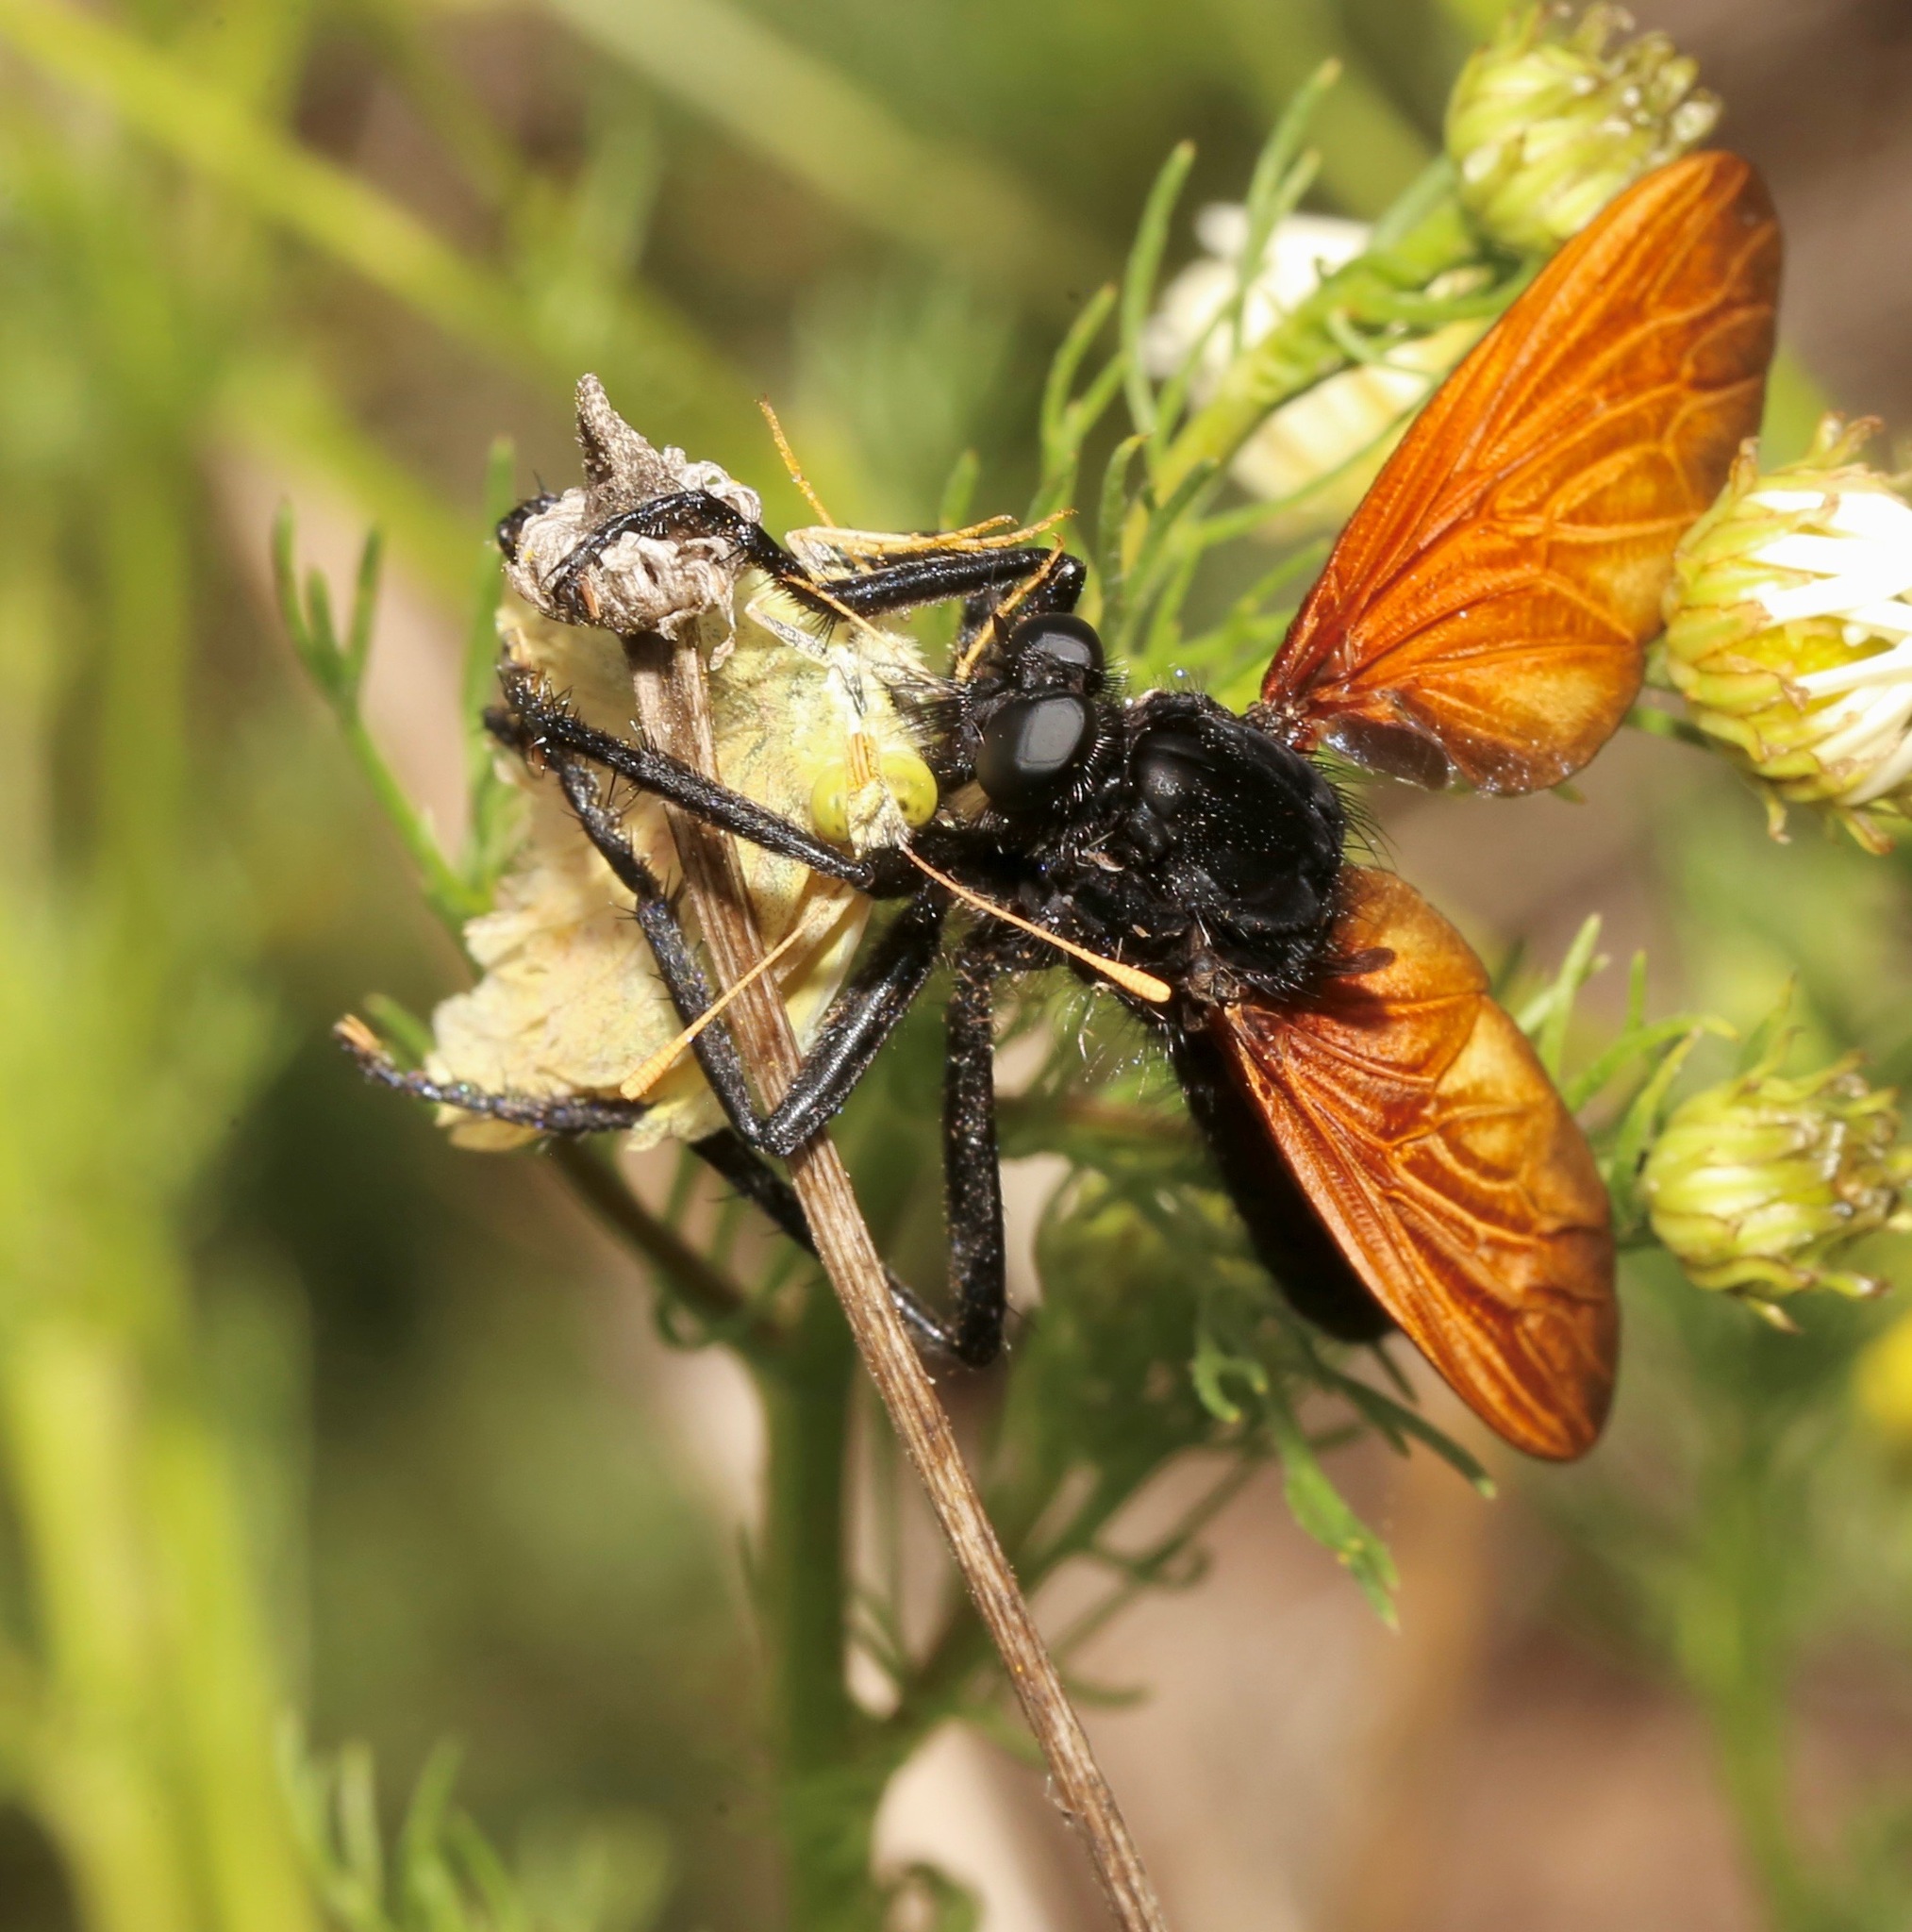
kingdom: Animalia
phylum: Arthropoda
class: Insecta
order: Diptera
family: Asilidae
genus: Wilcoxius
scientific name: Wilcoxius mydas
